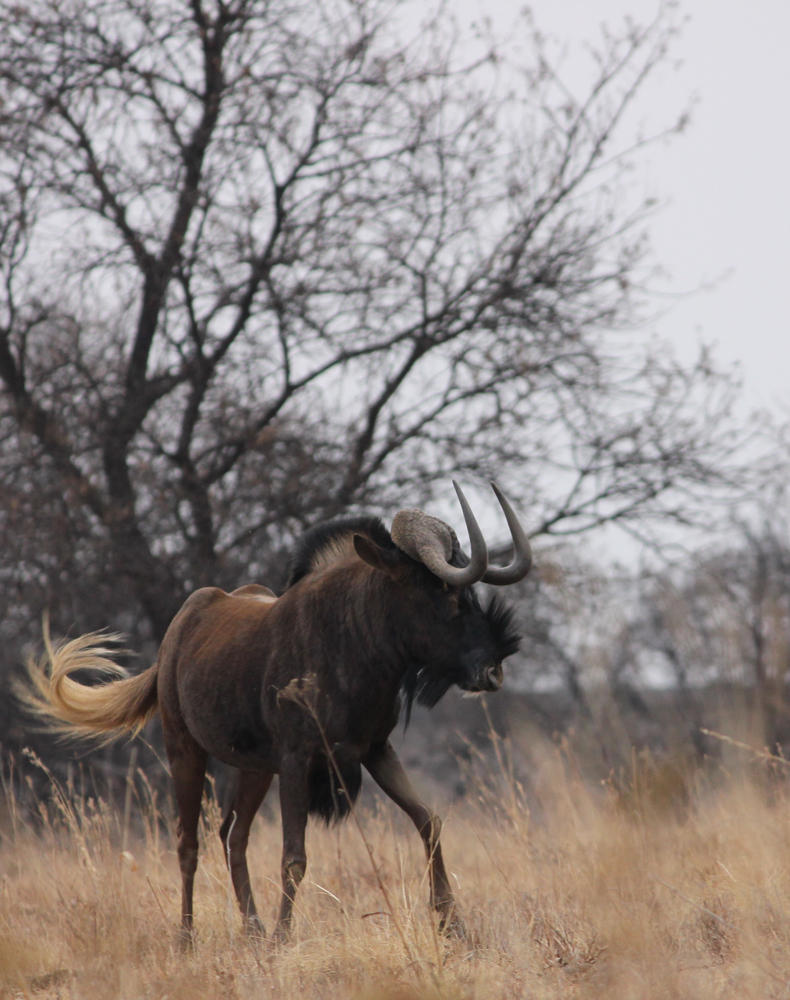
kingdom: Animalia
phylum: Chordata
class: Mammalia
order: Artiodactyla
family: Bovidae
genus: Connochaetes
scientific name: Connochaetes gnou
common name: Black wildebeest
